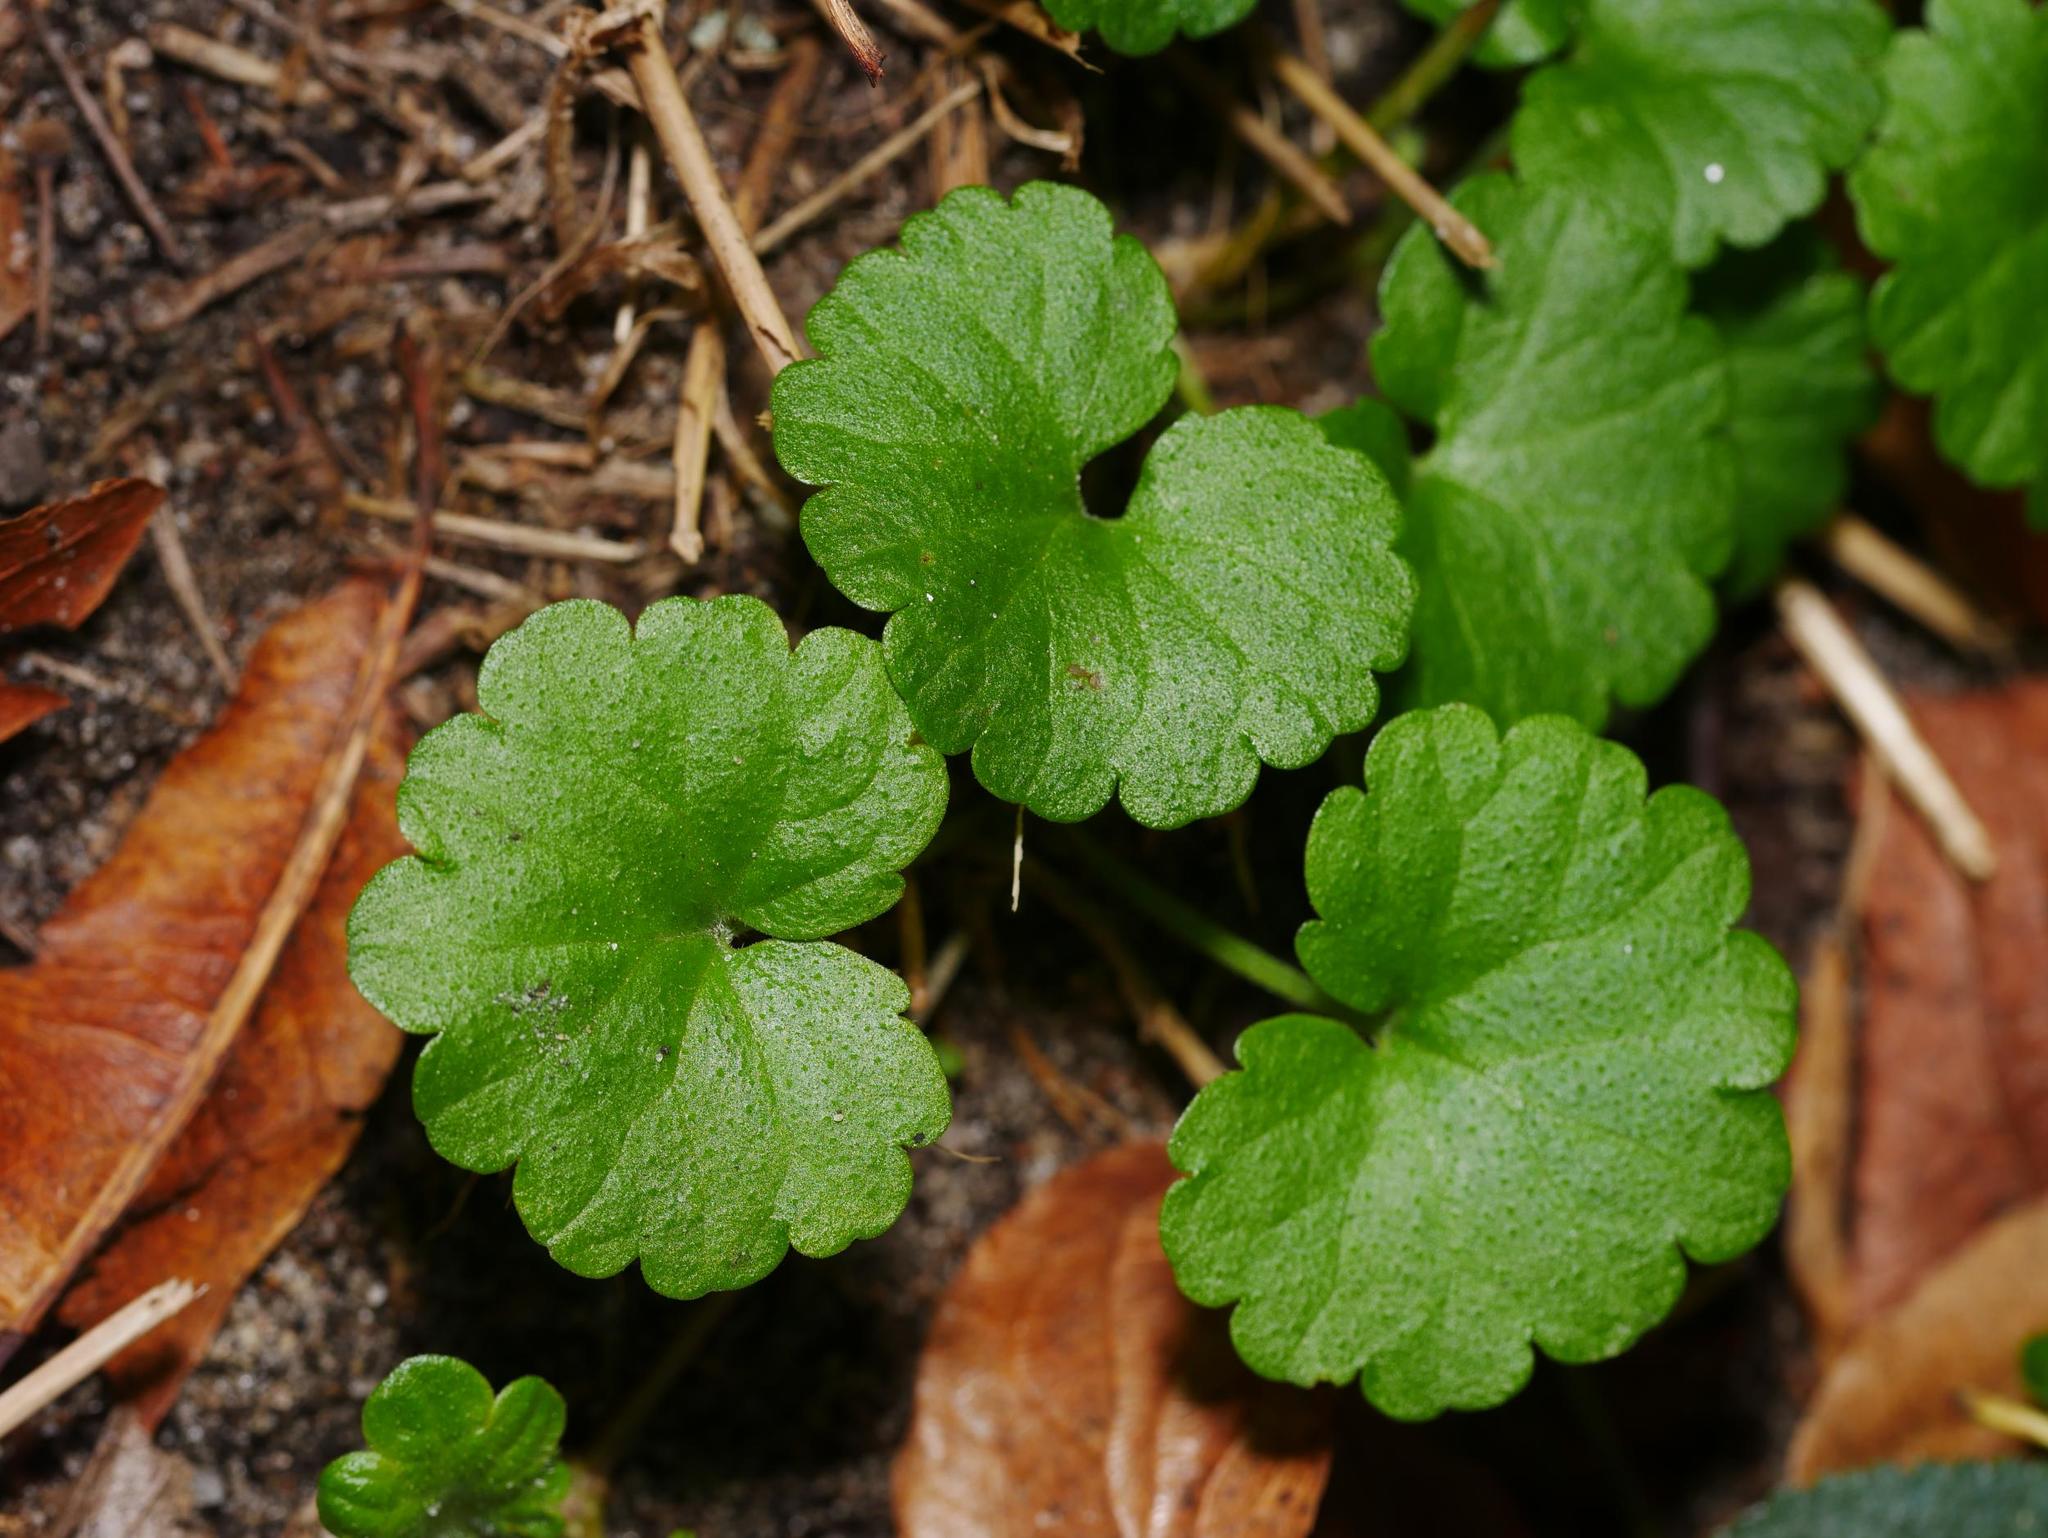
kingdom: Plantae
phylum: Tracheophyta
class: Magnoliopsida
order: Lamiales
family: Lamiaceae
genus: Glechoma
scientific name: Glechoma hederacea
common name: Ground ivy
